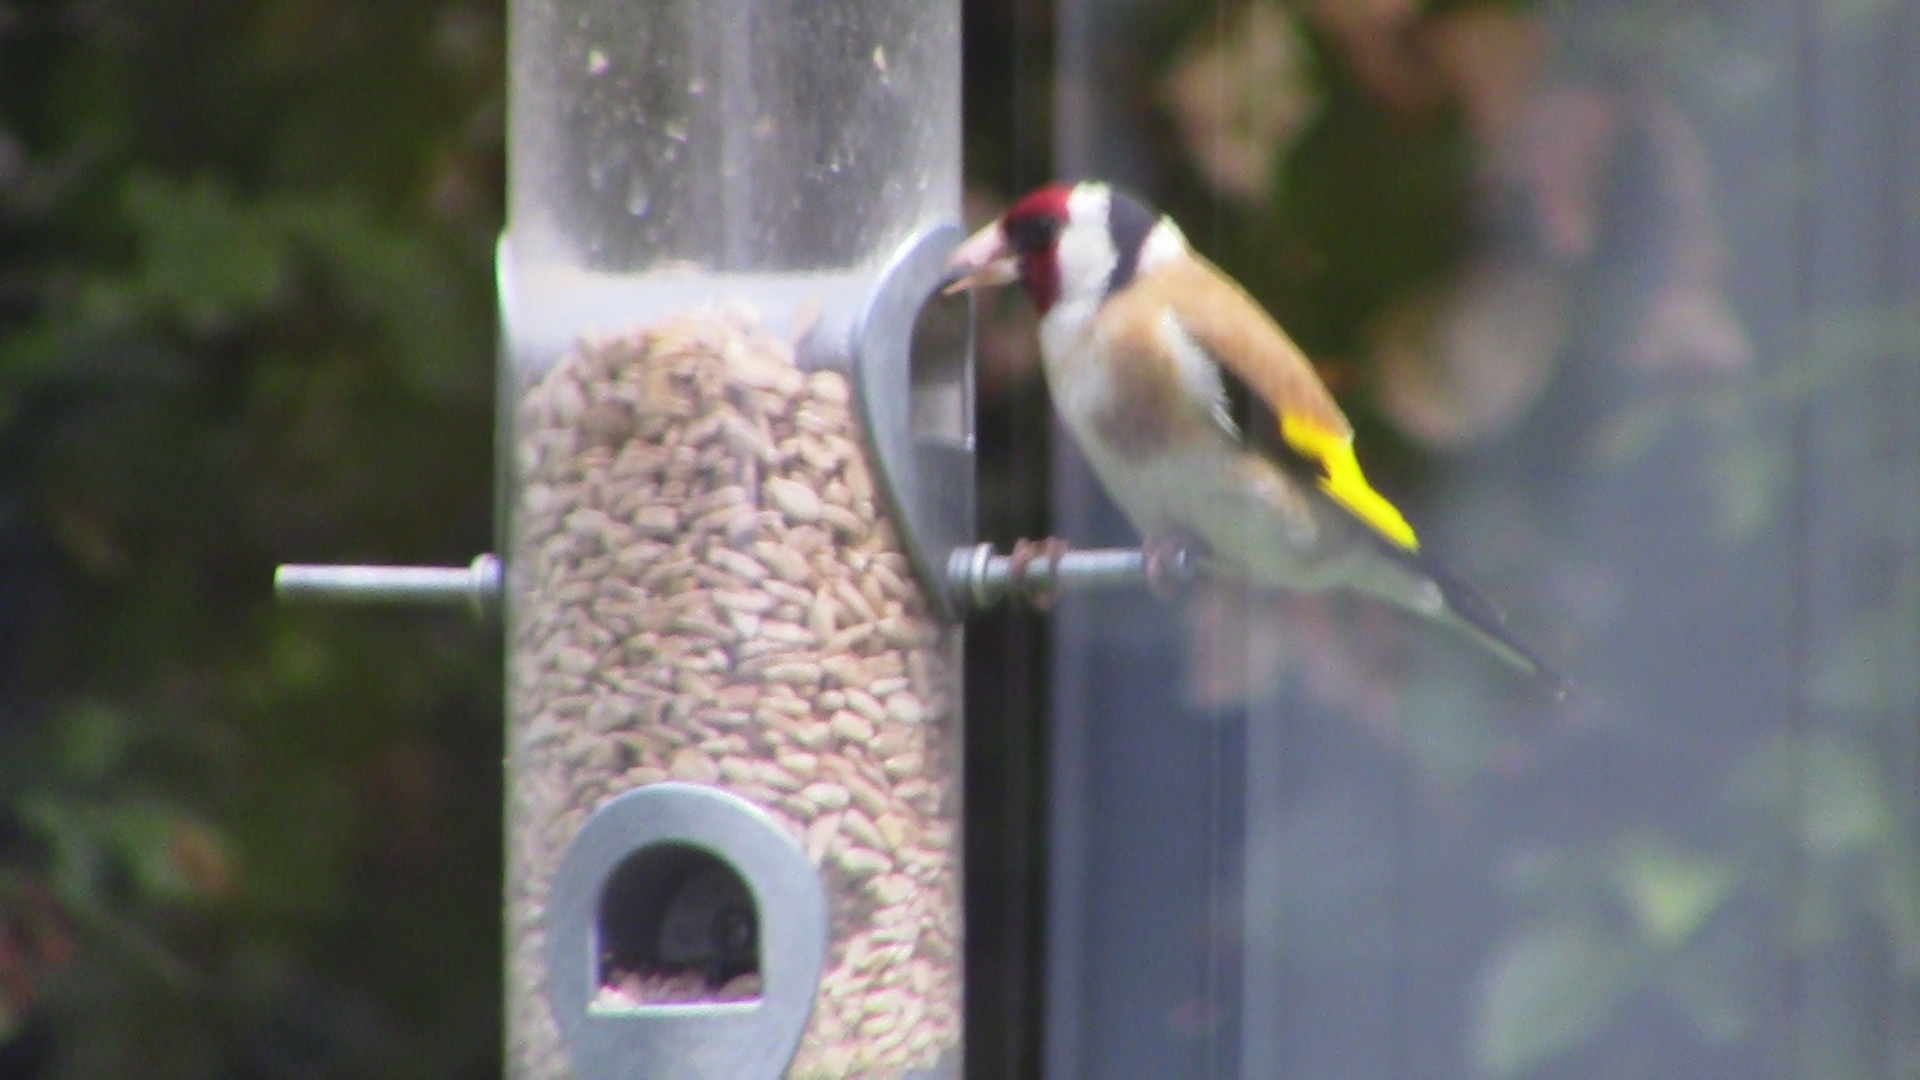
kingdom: Animalia
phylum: Chordata
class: Aves
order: Passeriformes
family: Fringillidae
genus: Carduelis
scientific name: Carduelis carduelis
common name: European goldfinch
